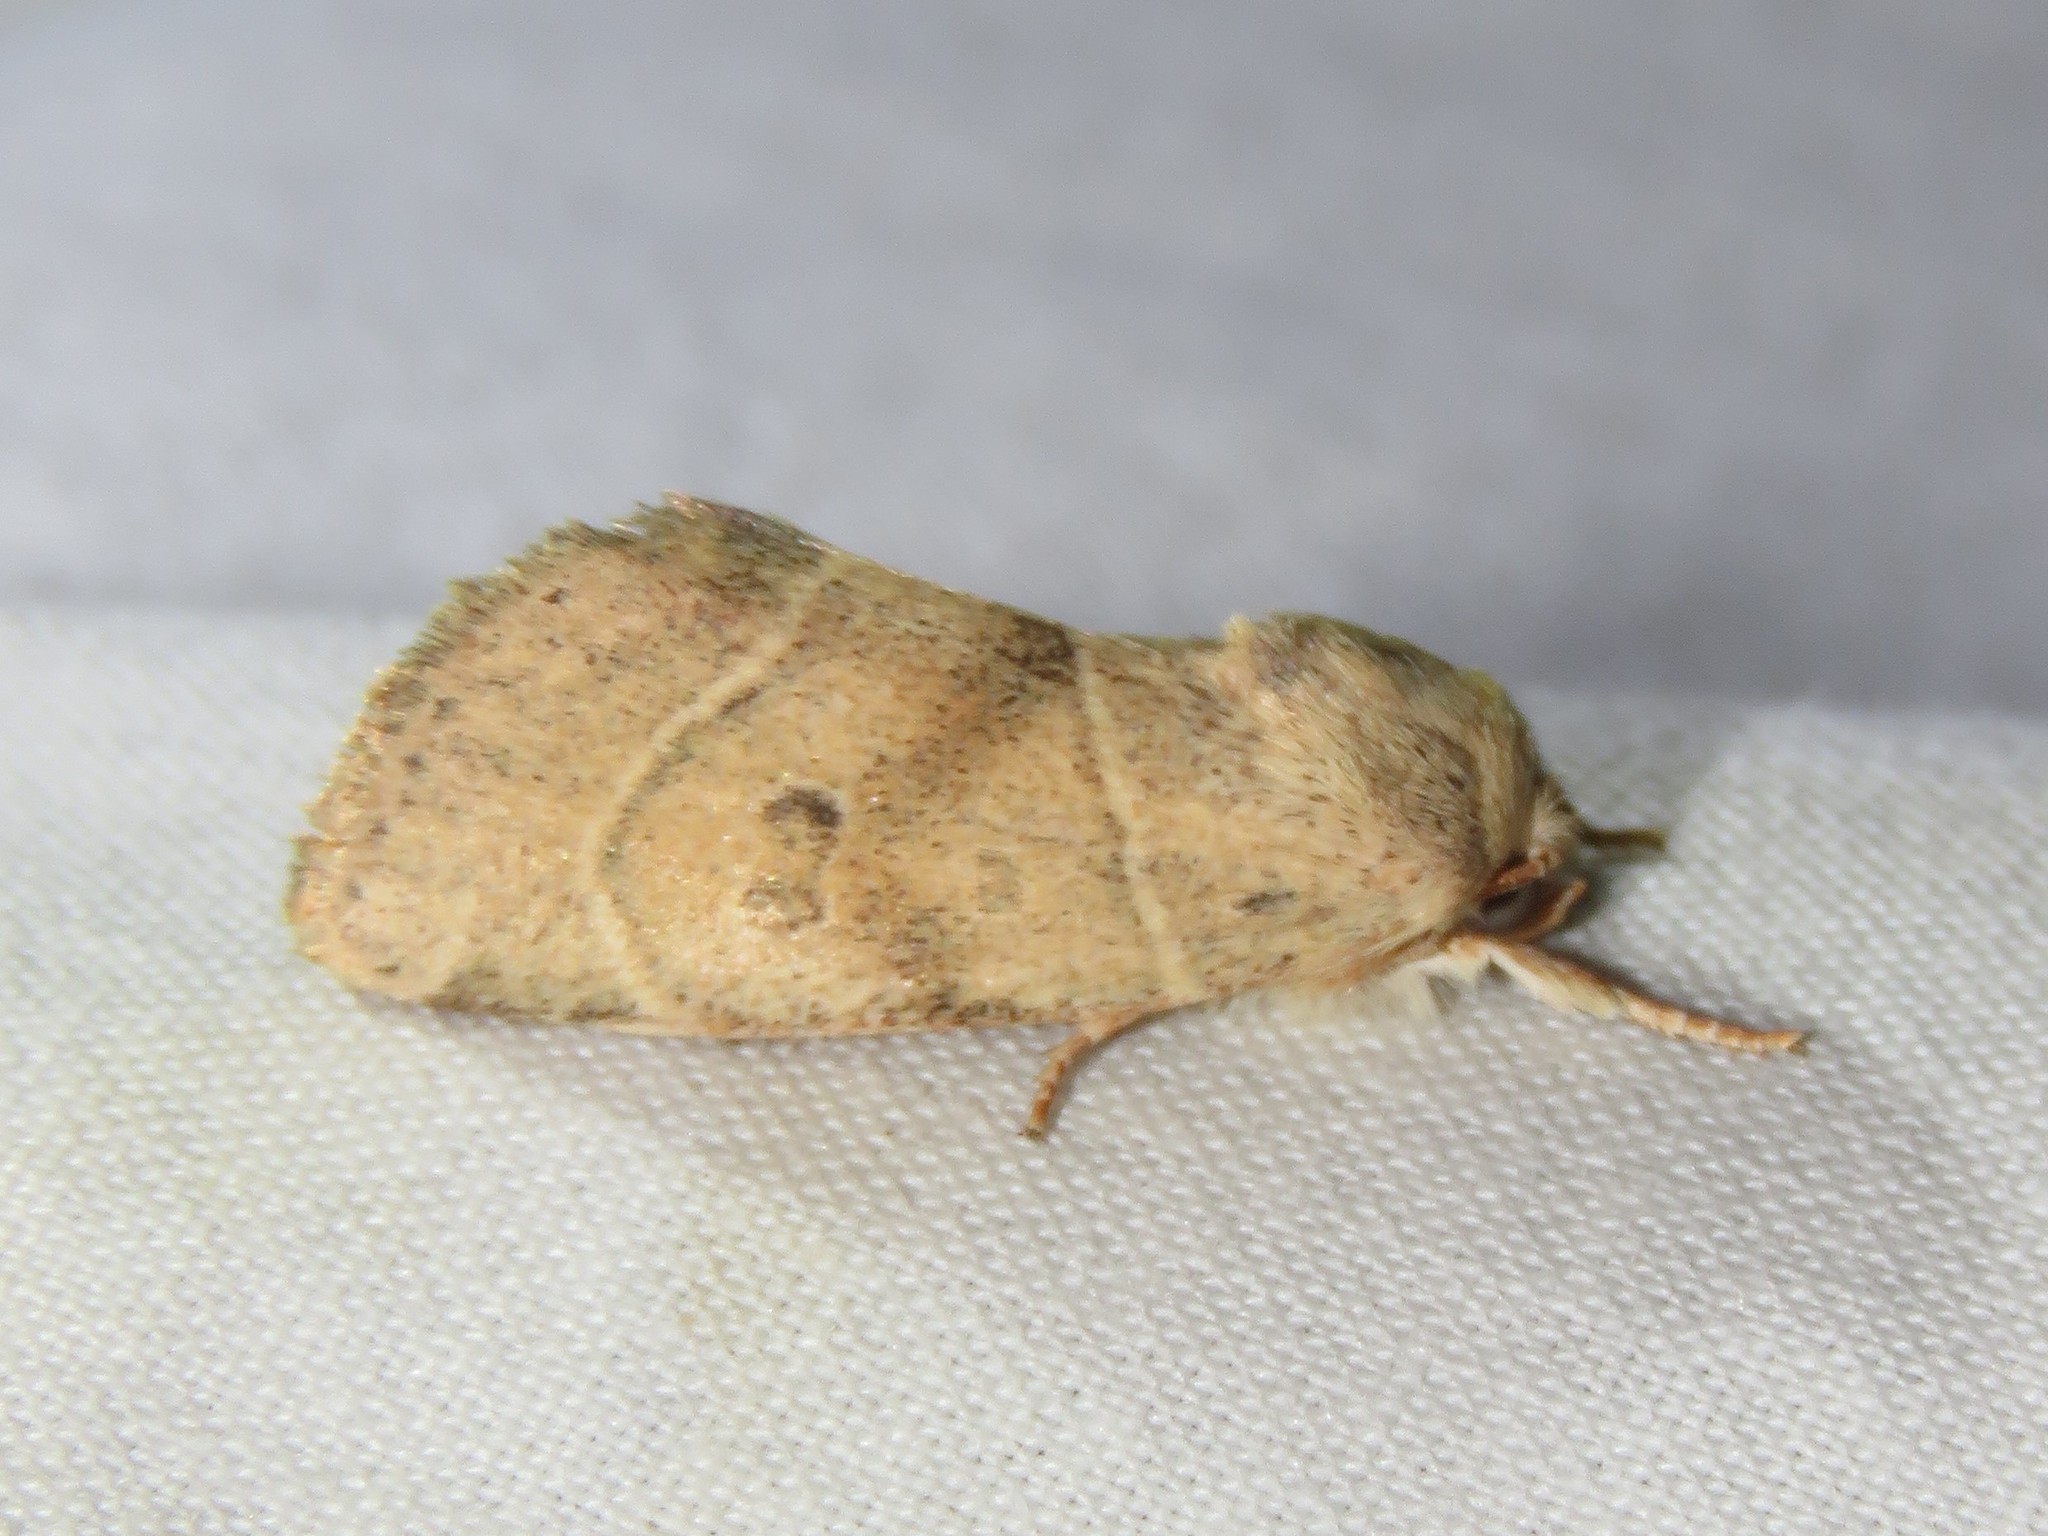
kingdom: Animalia
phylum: Arthropoda
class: Insecta
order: Lepidoptera
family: Noctuidae
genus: Cosmia
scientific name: Cosmia calami
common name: American dun-bar moth
